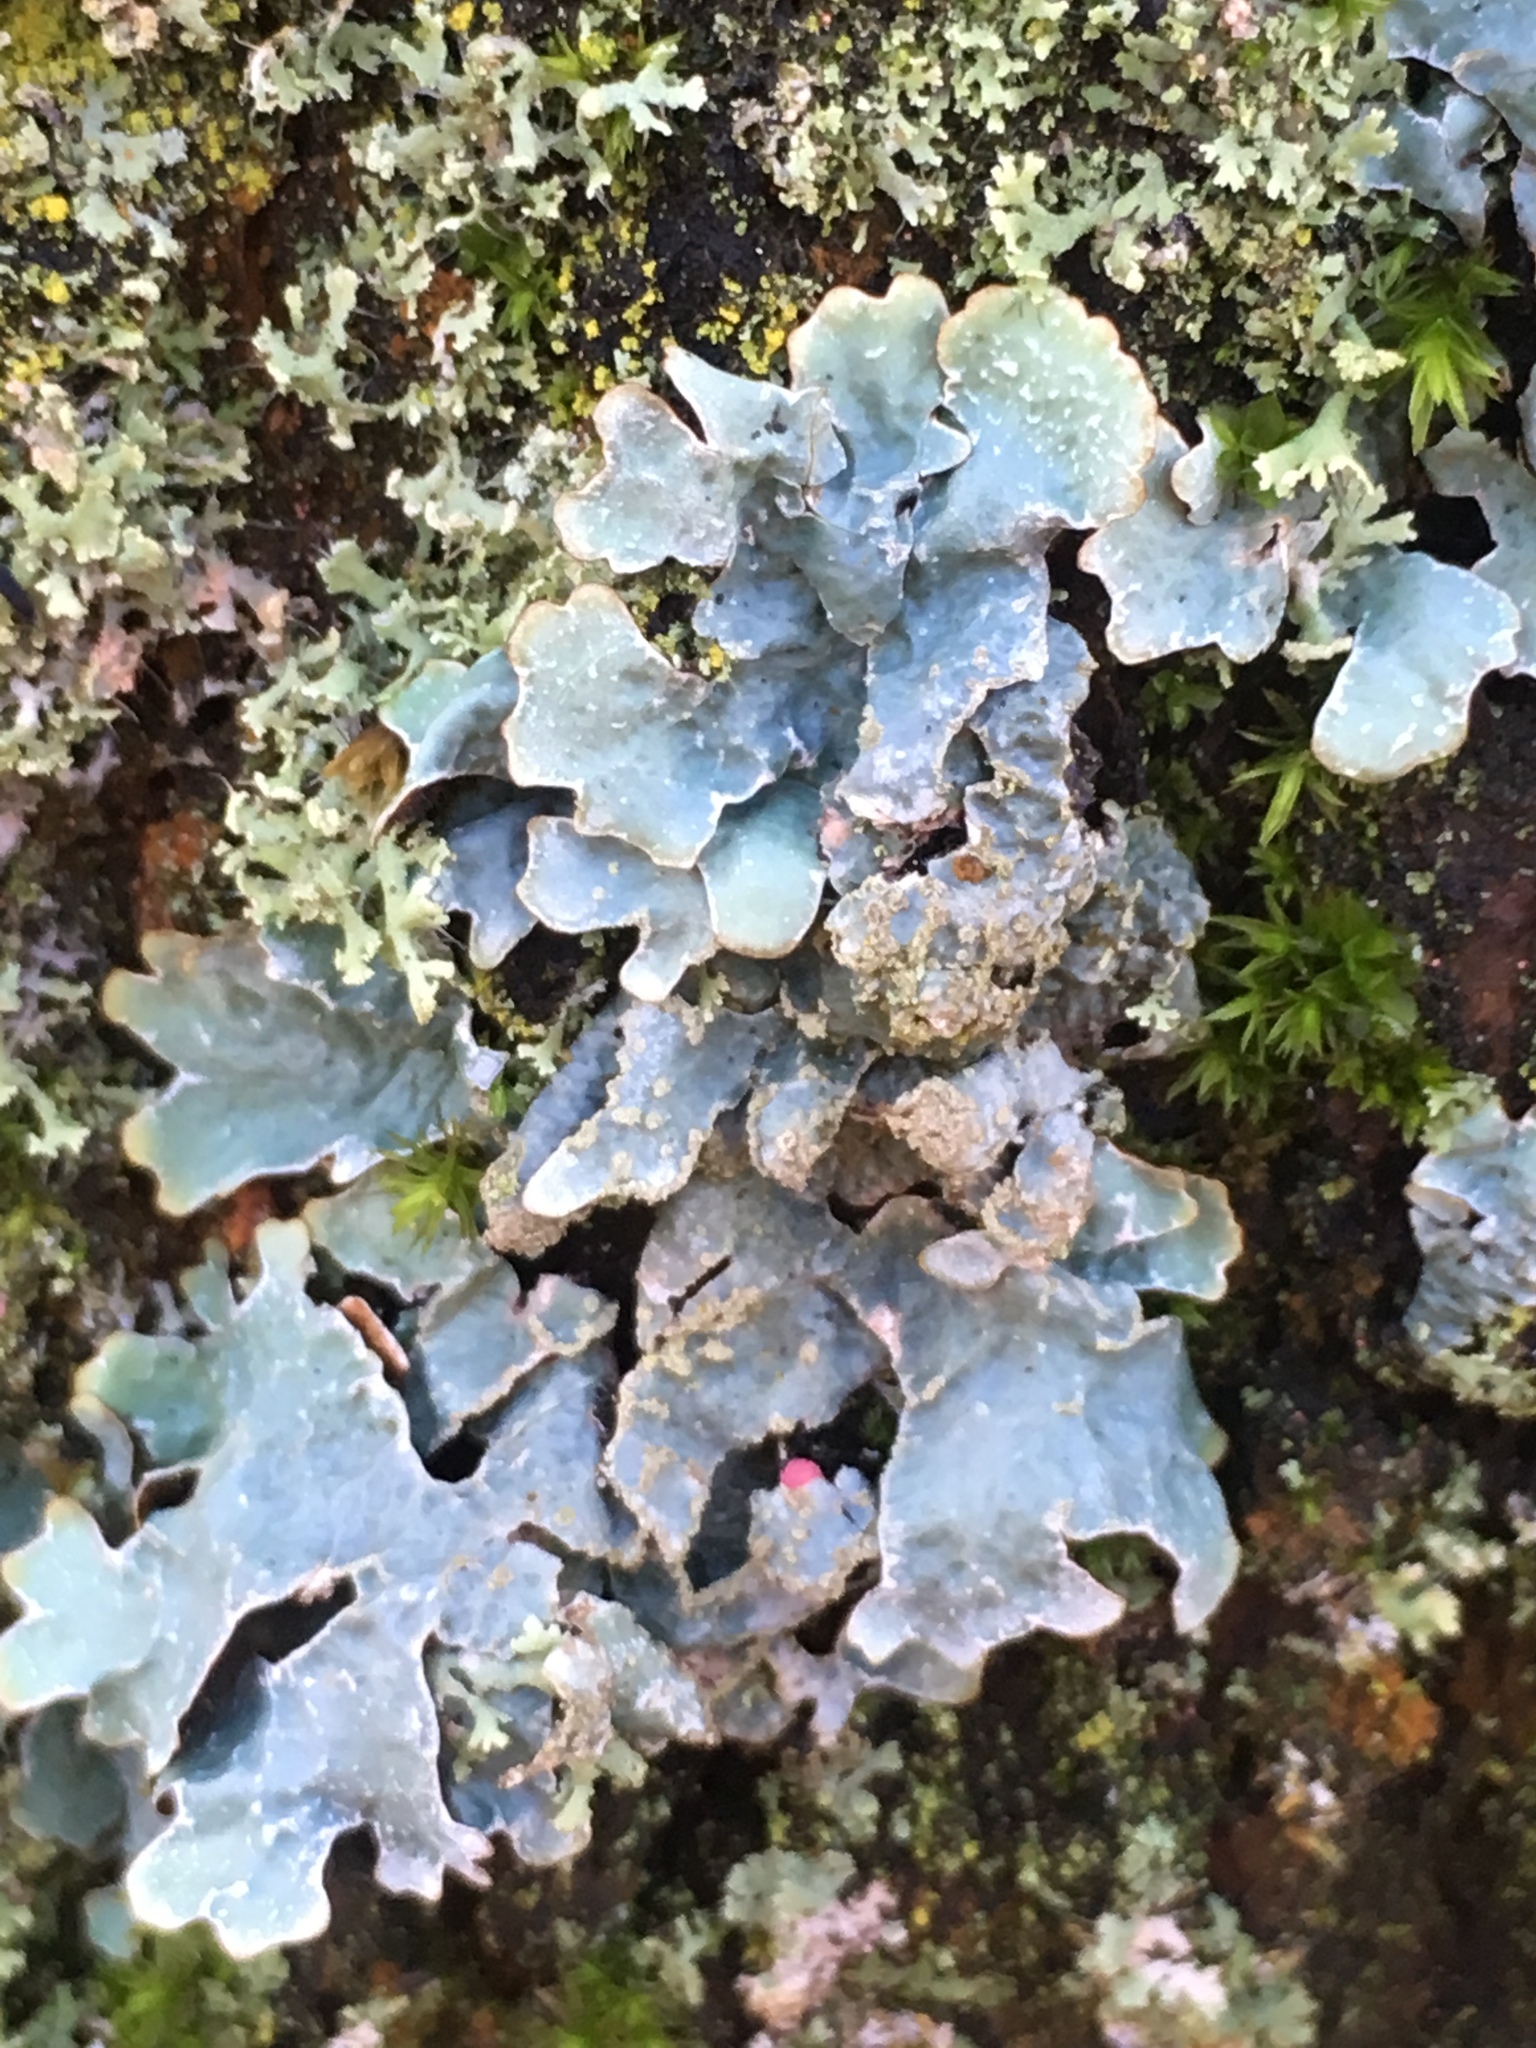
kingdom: Fungi
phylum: Ascomycota
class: Lecanoromycetes
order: Lecanorales
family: Parmeliaceae
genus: Parmelia
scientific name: Parmelia sulcata
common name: Netted shield lichen
